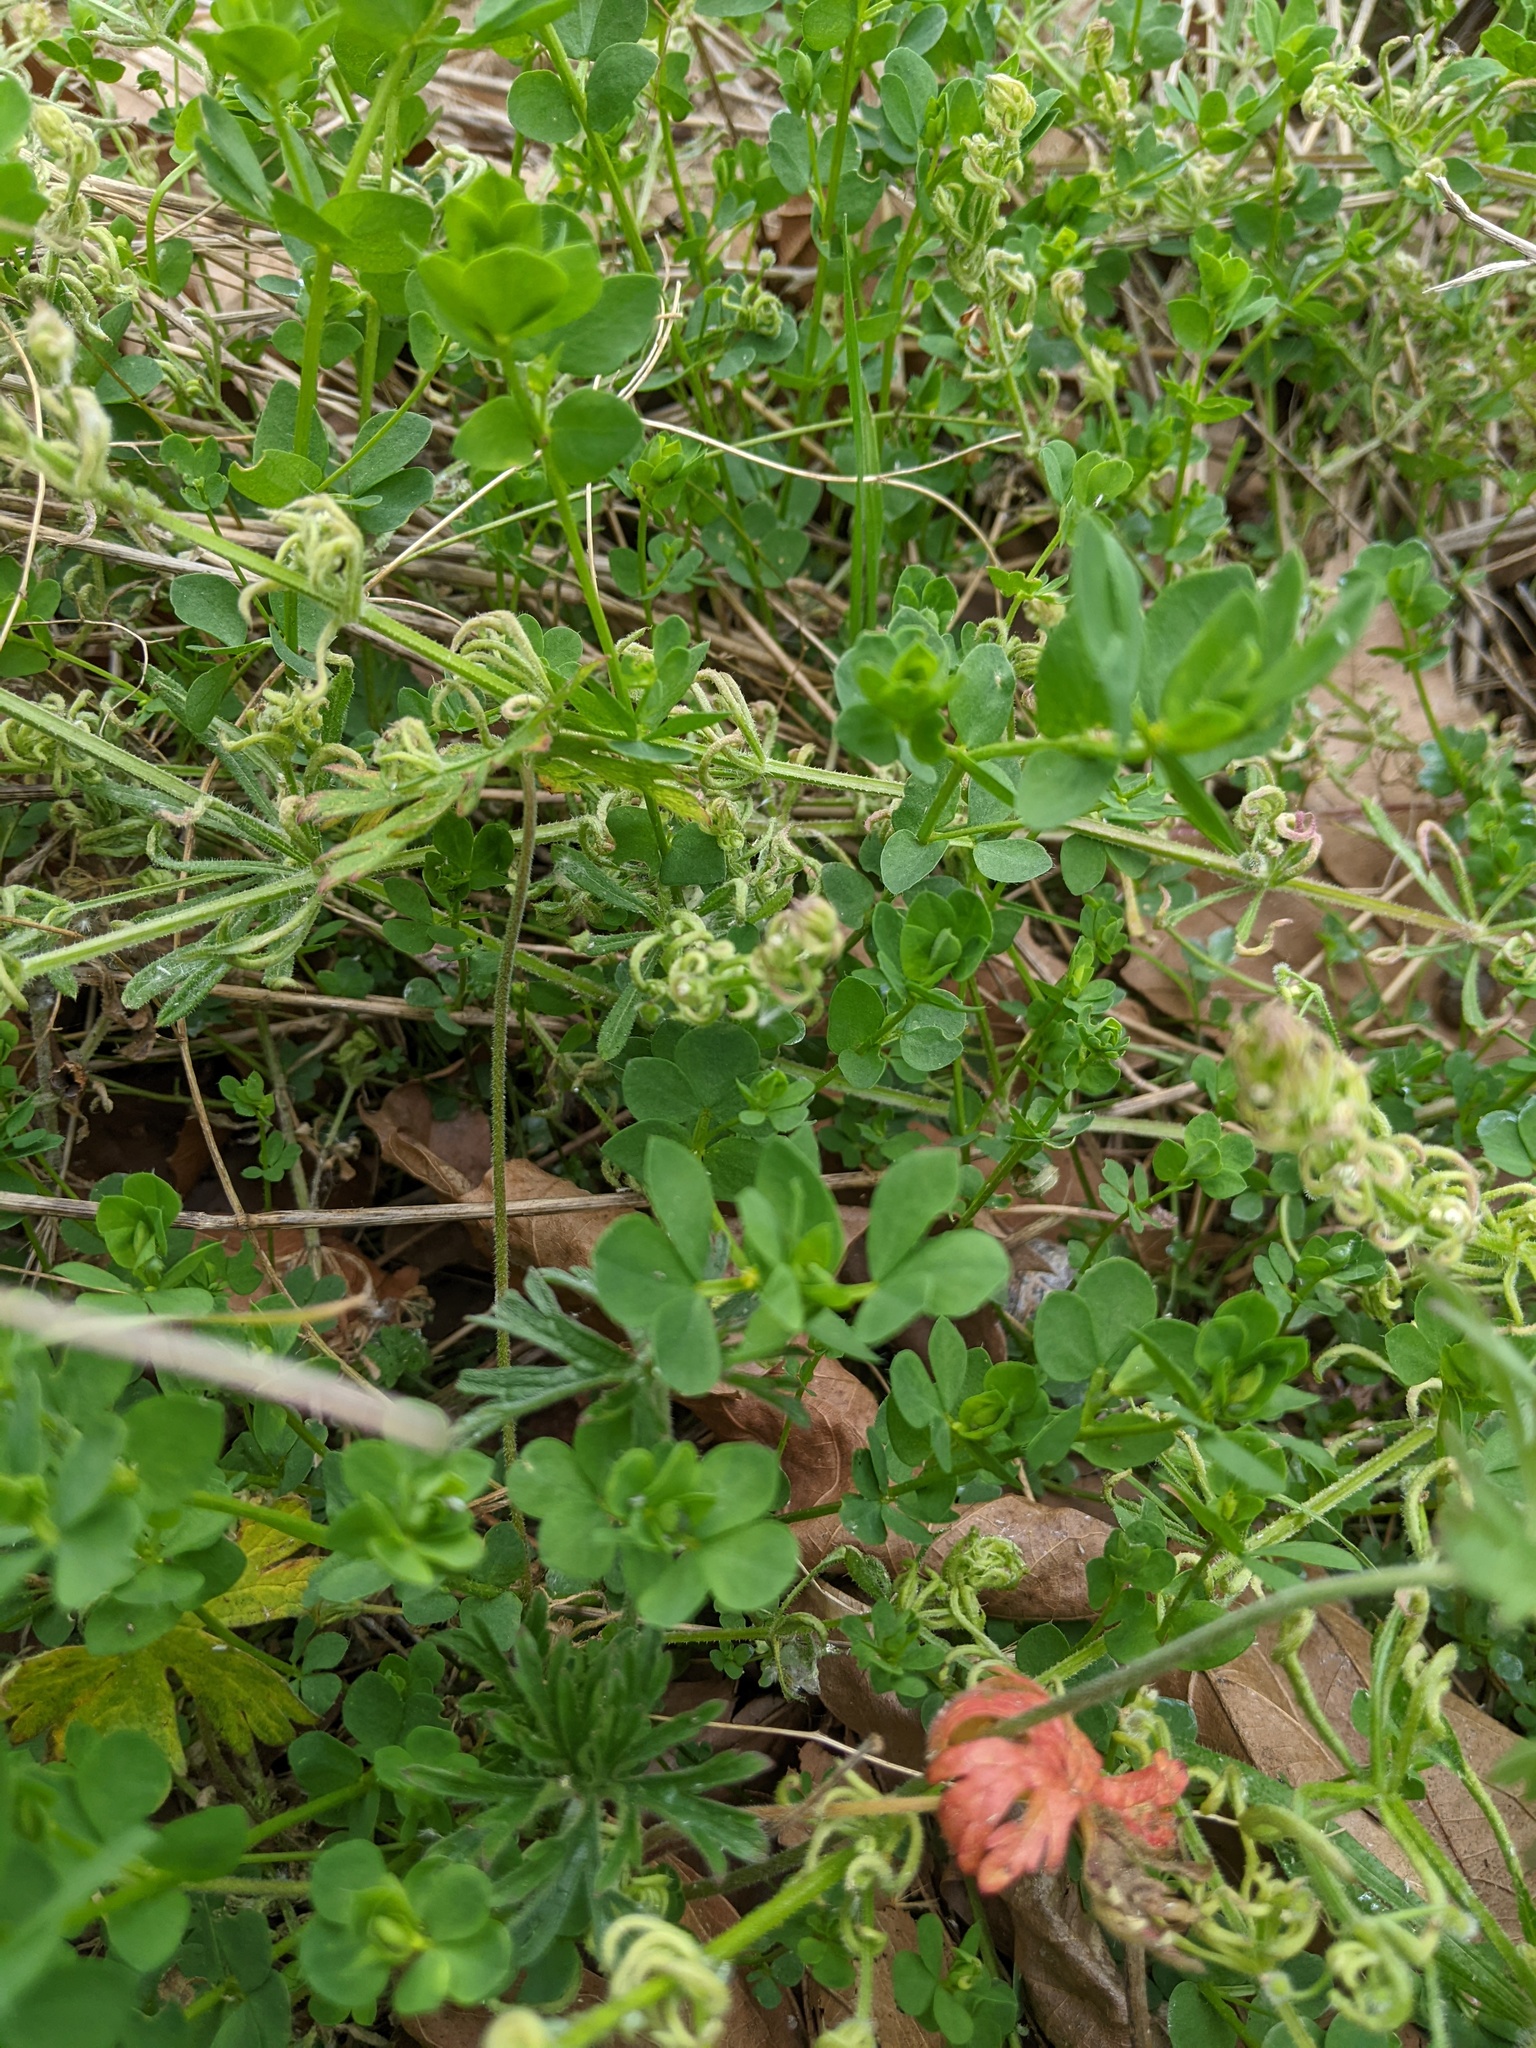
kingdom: Plantae
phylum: Tracheophyta
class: Magnoliopsida
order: Fabales
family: Fabaceae
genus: Lotus
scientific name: Lotus corniculatus
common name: Common bird's-foot-trefoil
